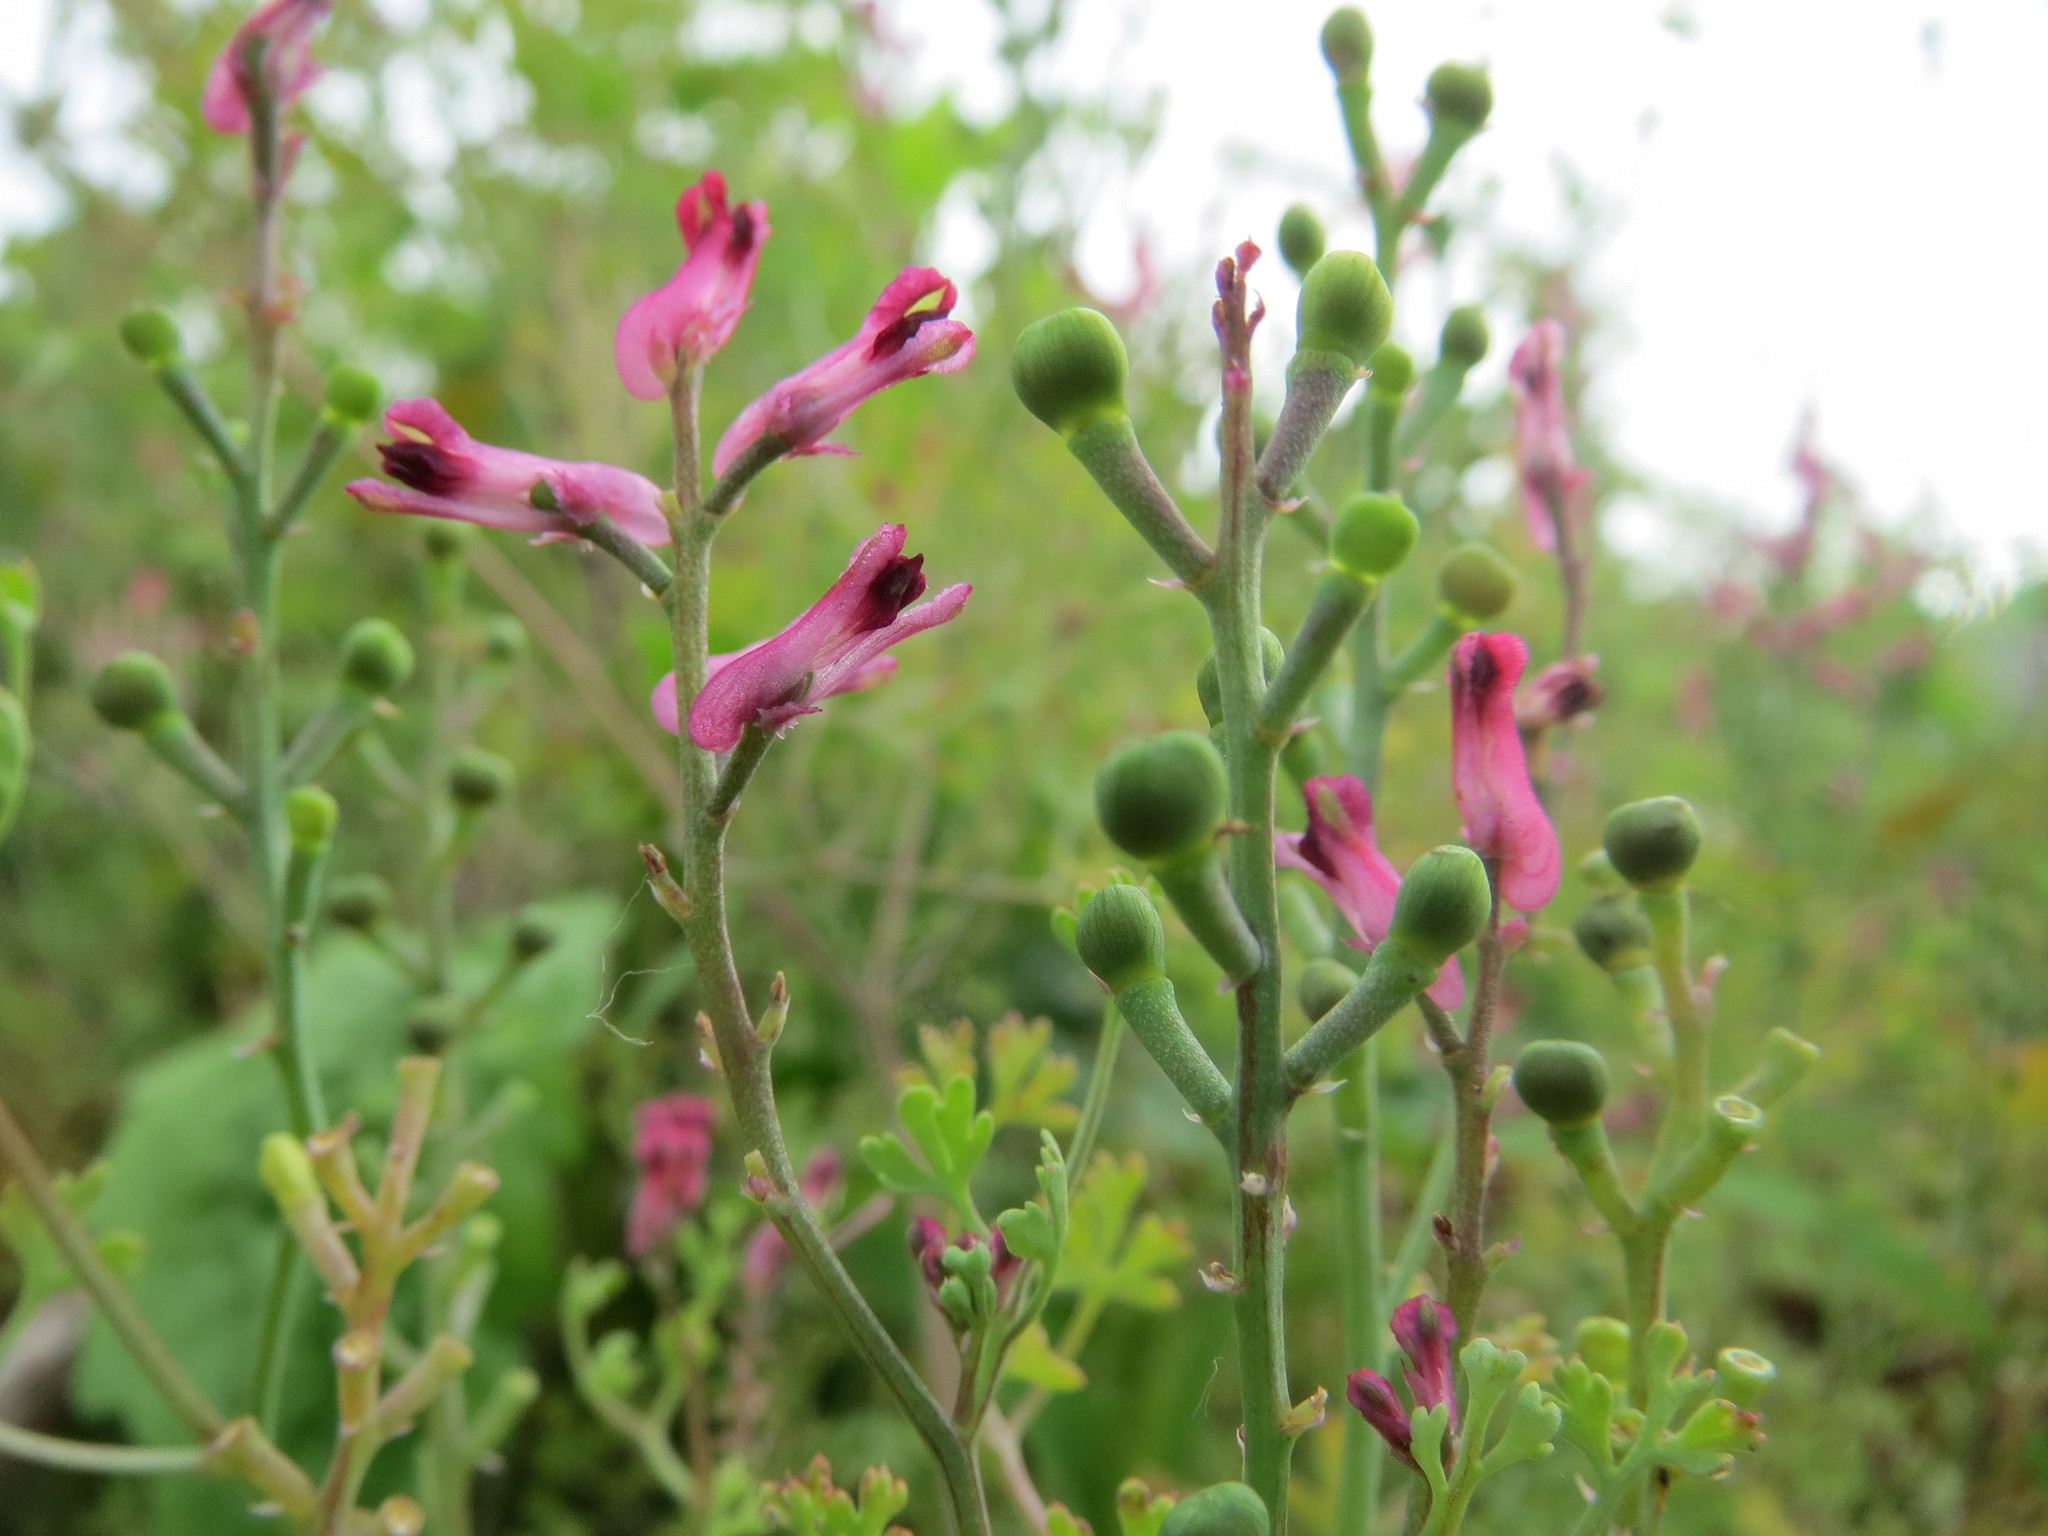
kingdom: Plantae
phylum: Tracheophyta
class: Magnoliopsida
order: Ranunculales
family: Papaveraceae
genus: Fumaria
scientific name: Fumaria officinalis
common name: Common fumitory
